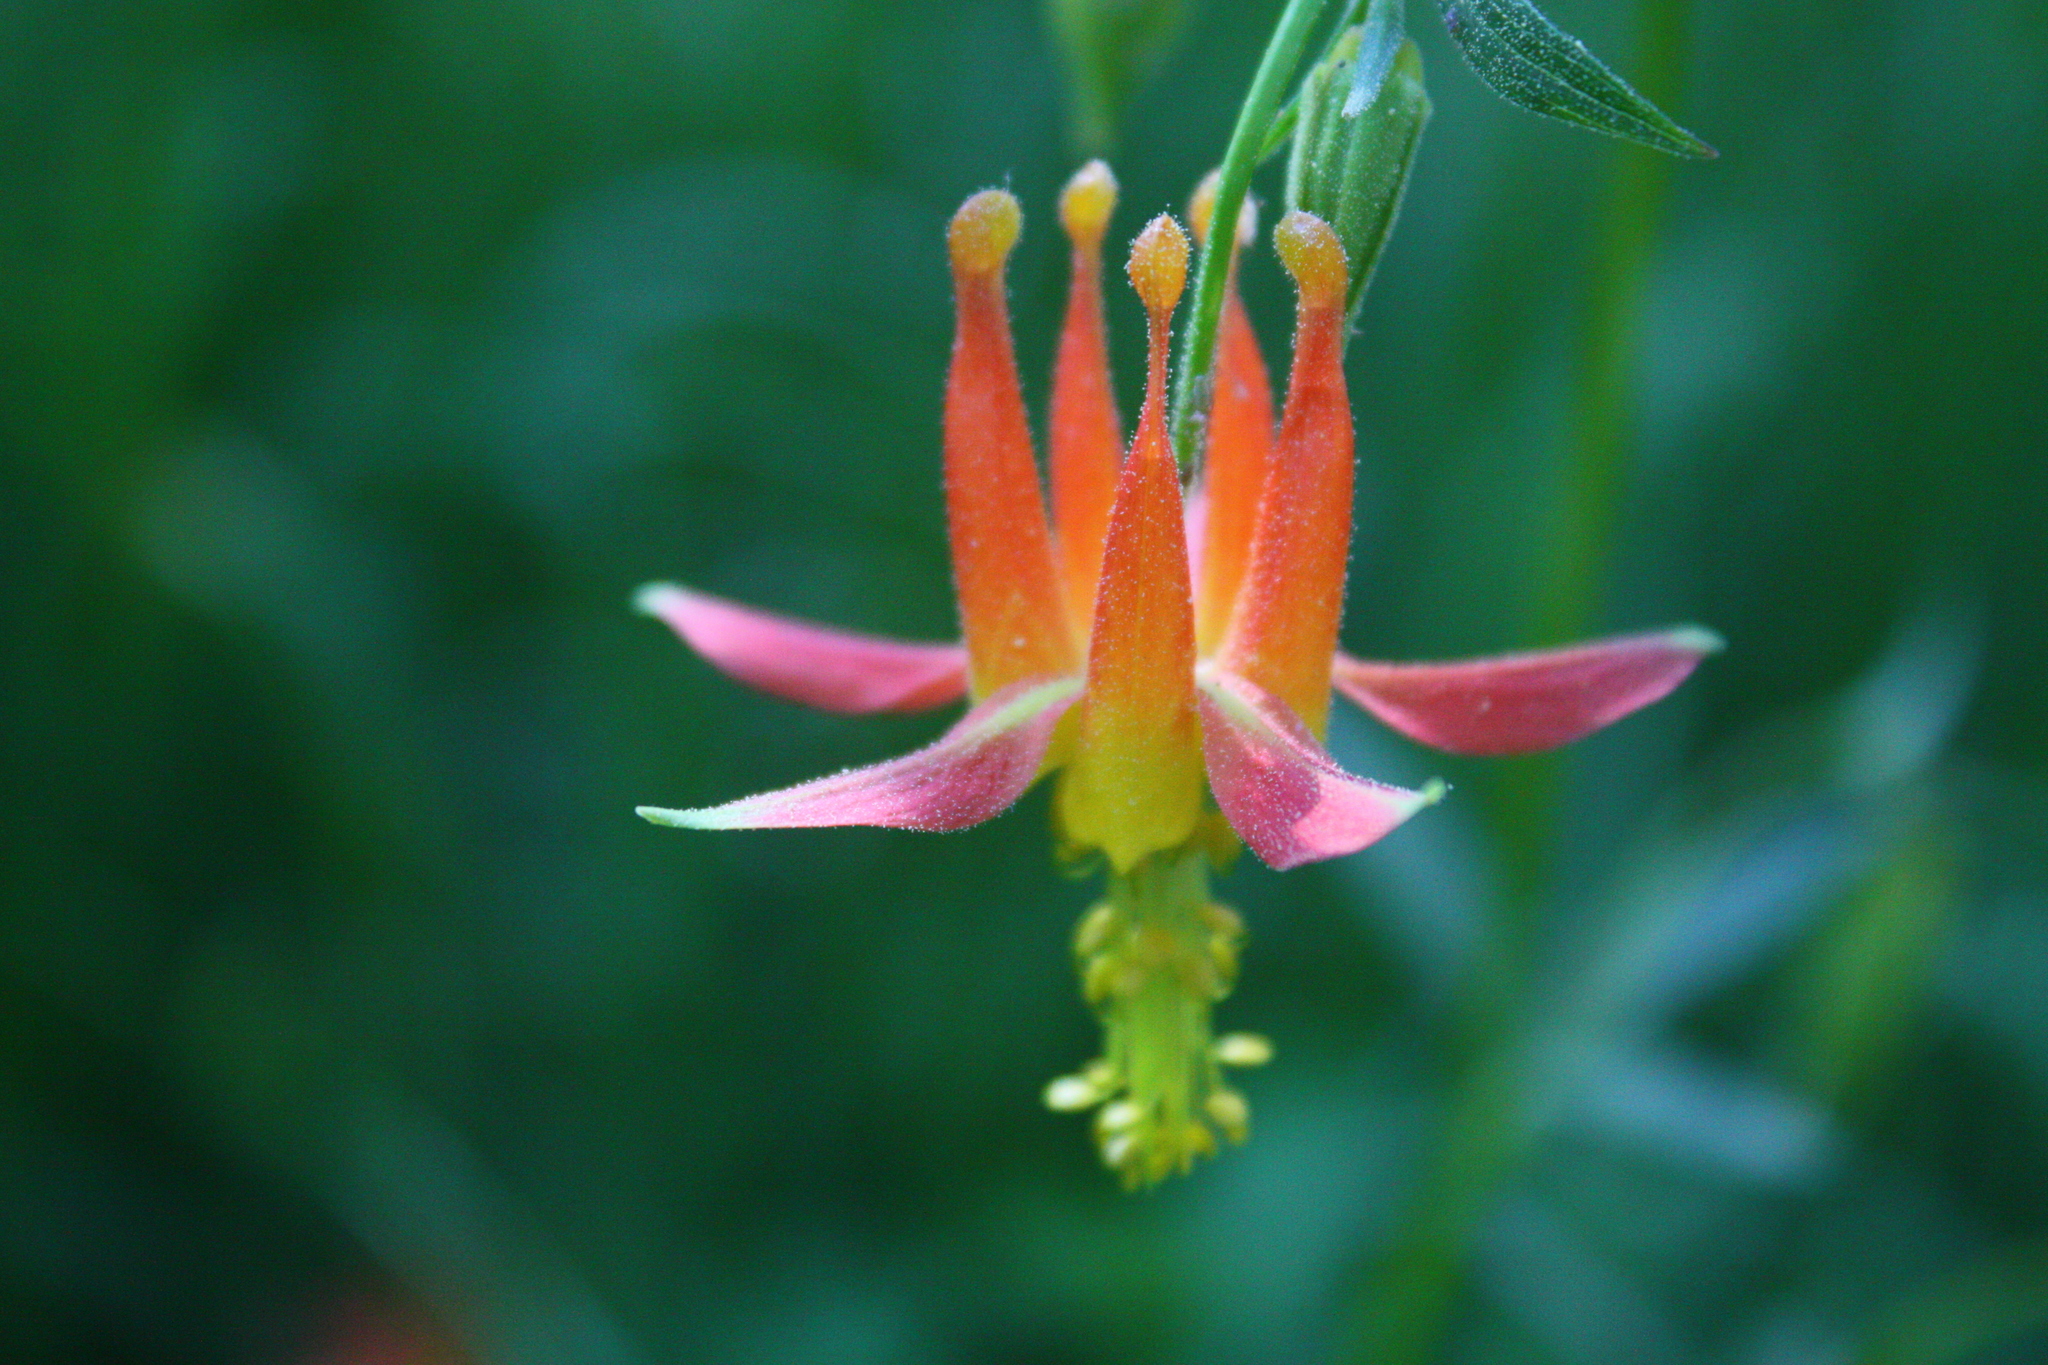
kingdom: Plantae
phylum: Tracheophyta
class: Magnoliopsida
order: Ranunculales
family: Ranunculaceae
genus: Aquilegia
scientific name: Aquilegia formosa
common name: Sitka columbine
